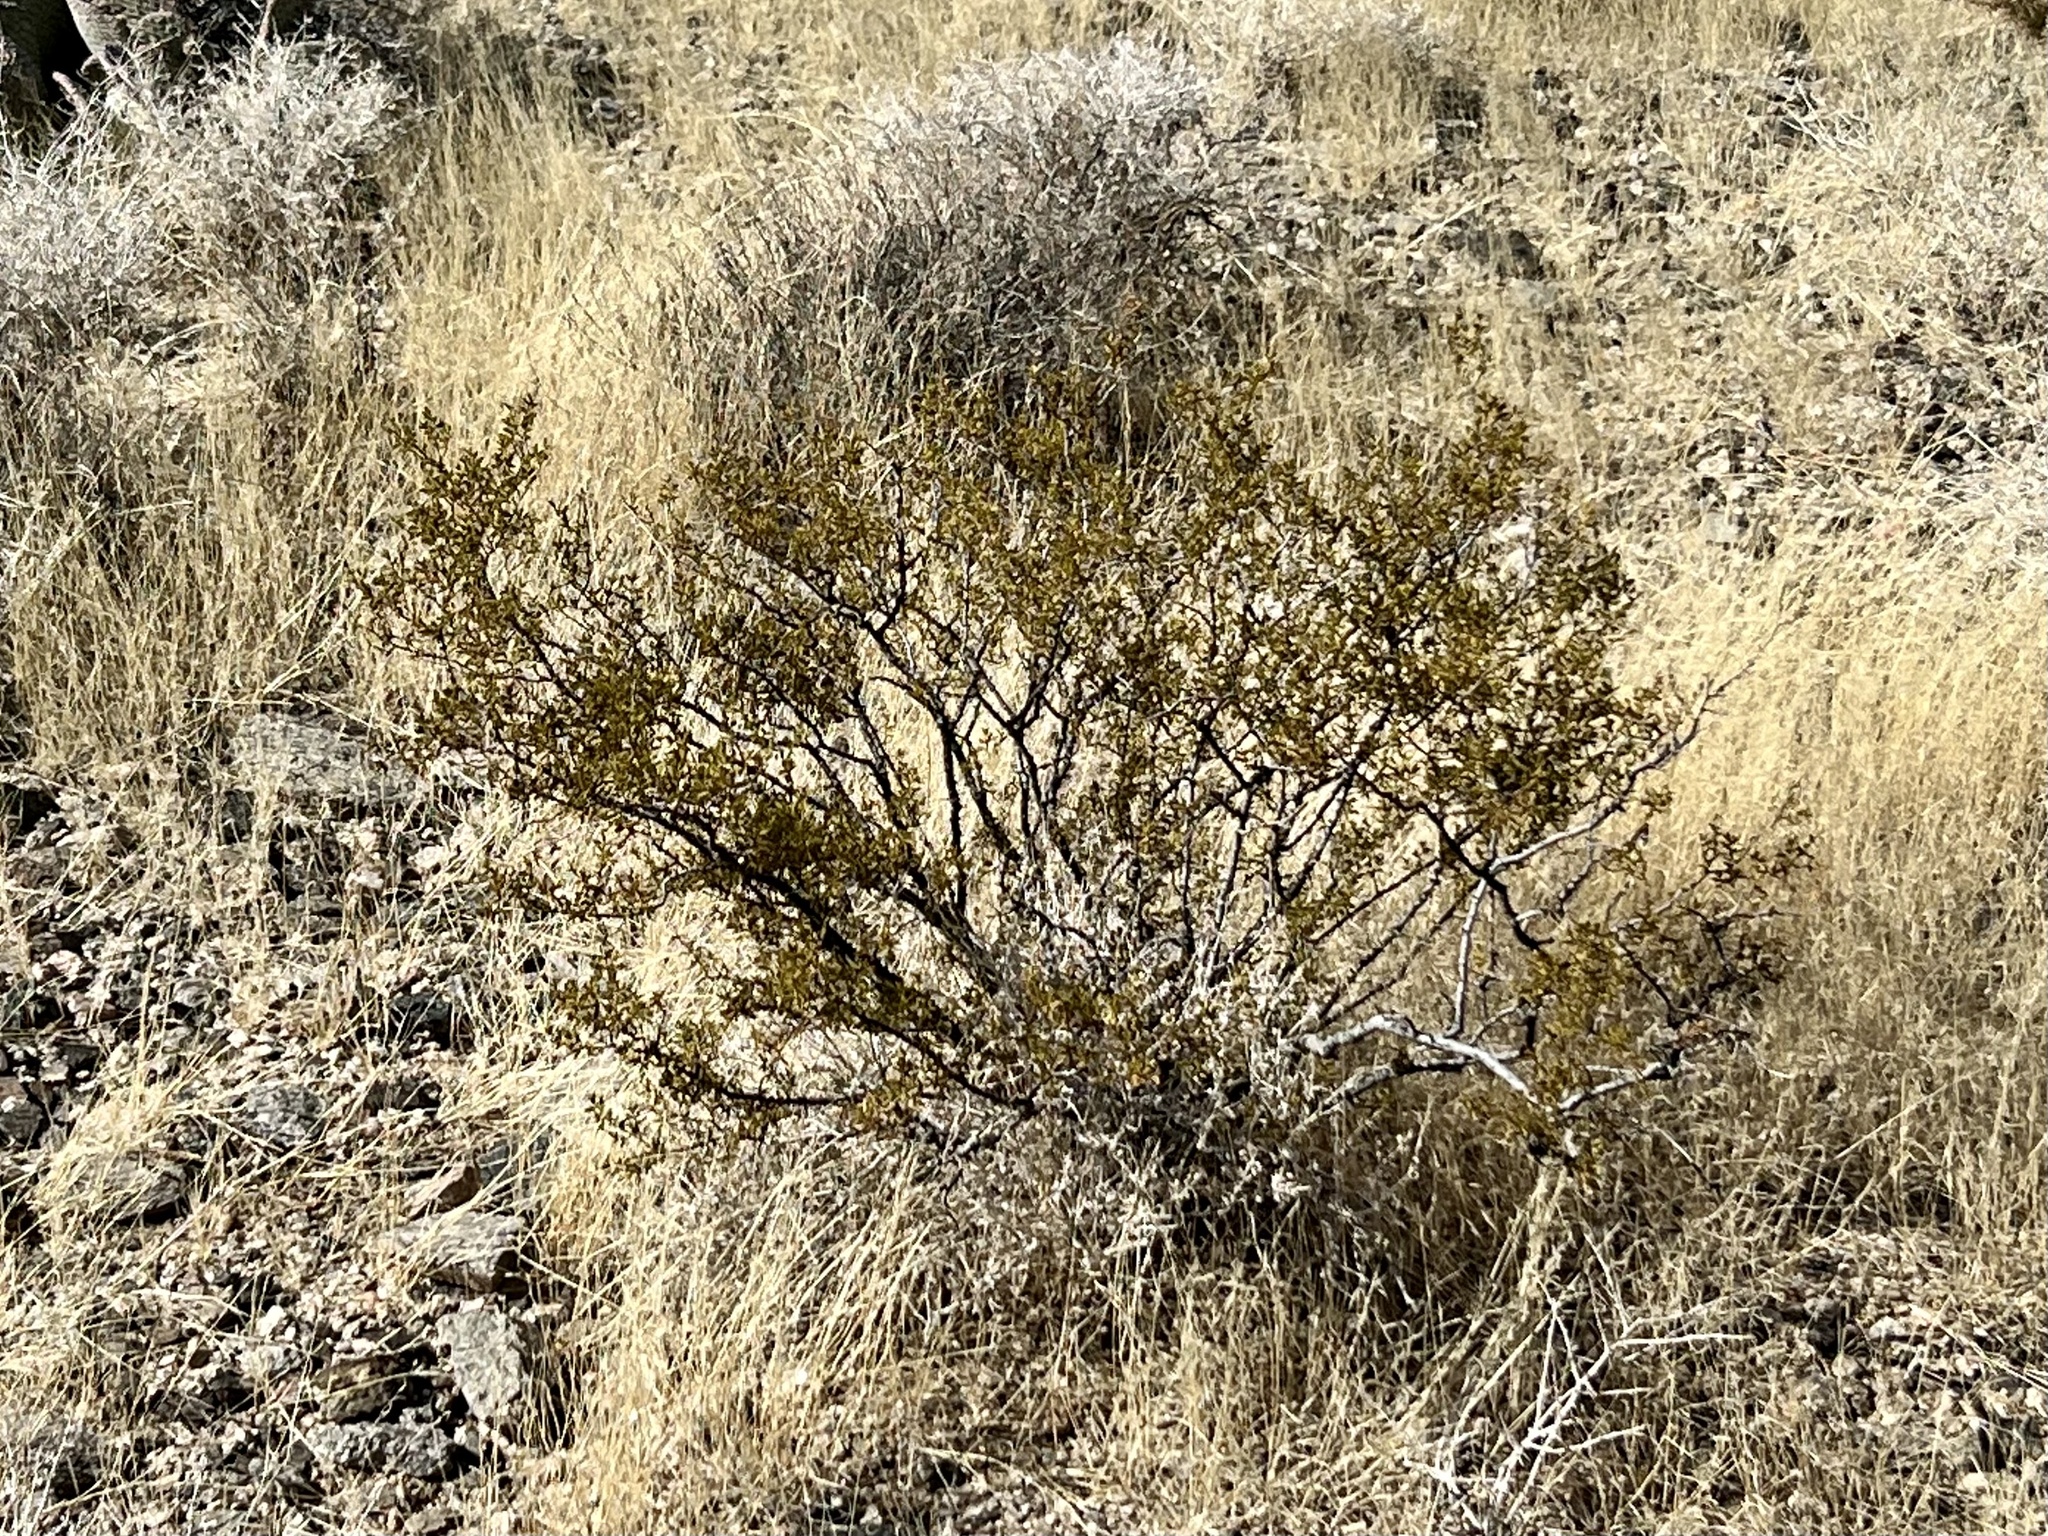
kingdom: Plantae
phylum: Tracheophyta
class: Magnoliopsida
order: Zygophyllales
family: Zygophyllaceae
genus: Larrea
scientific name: Larrea tridentata
